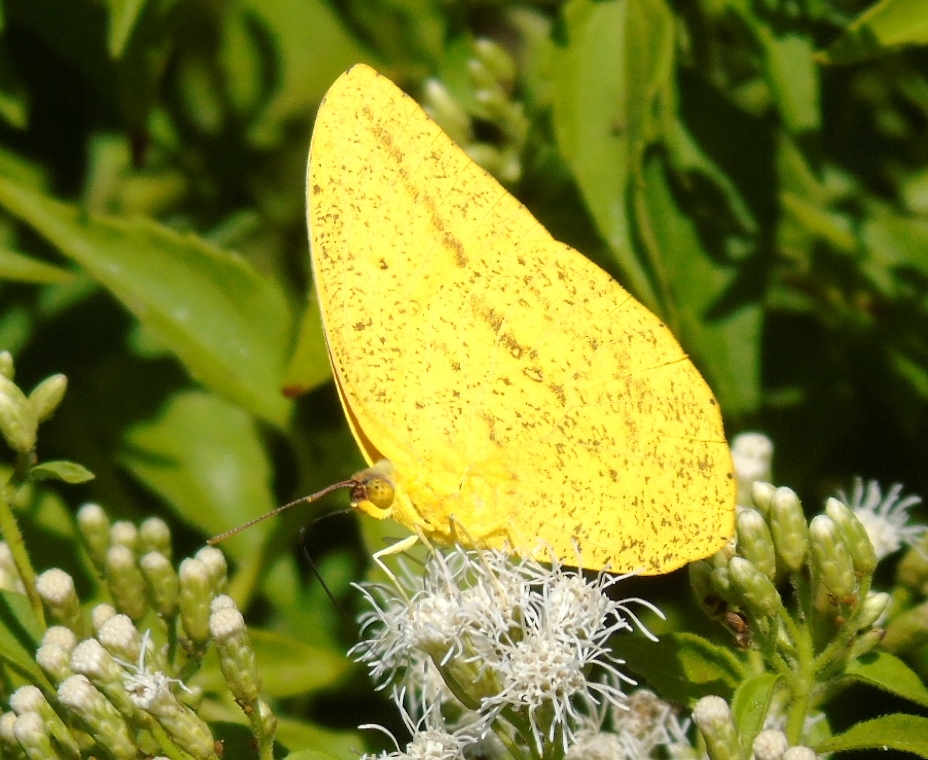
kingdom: Animalia
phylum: Arthropoda
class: Insecta
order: Lepidoptera
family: Pieridae
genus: Phoebis
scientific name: Phoebis agarithe
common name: Large orange sulphur
